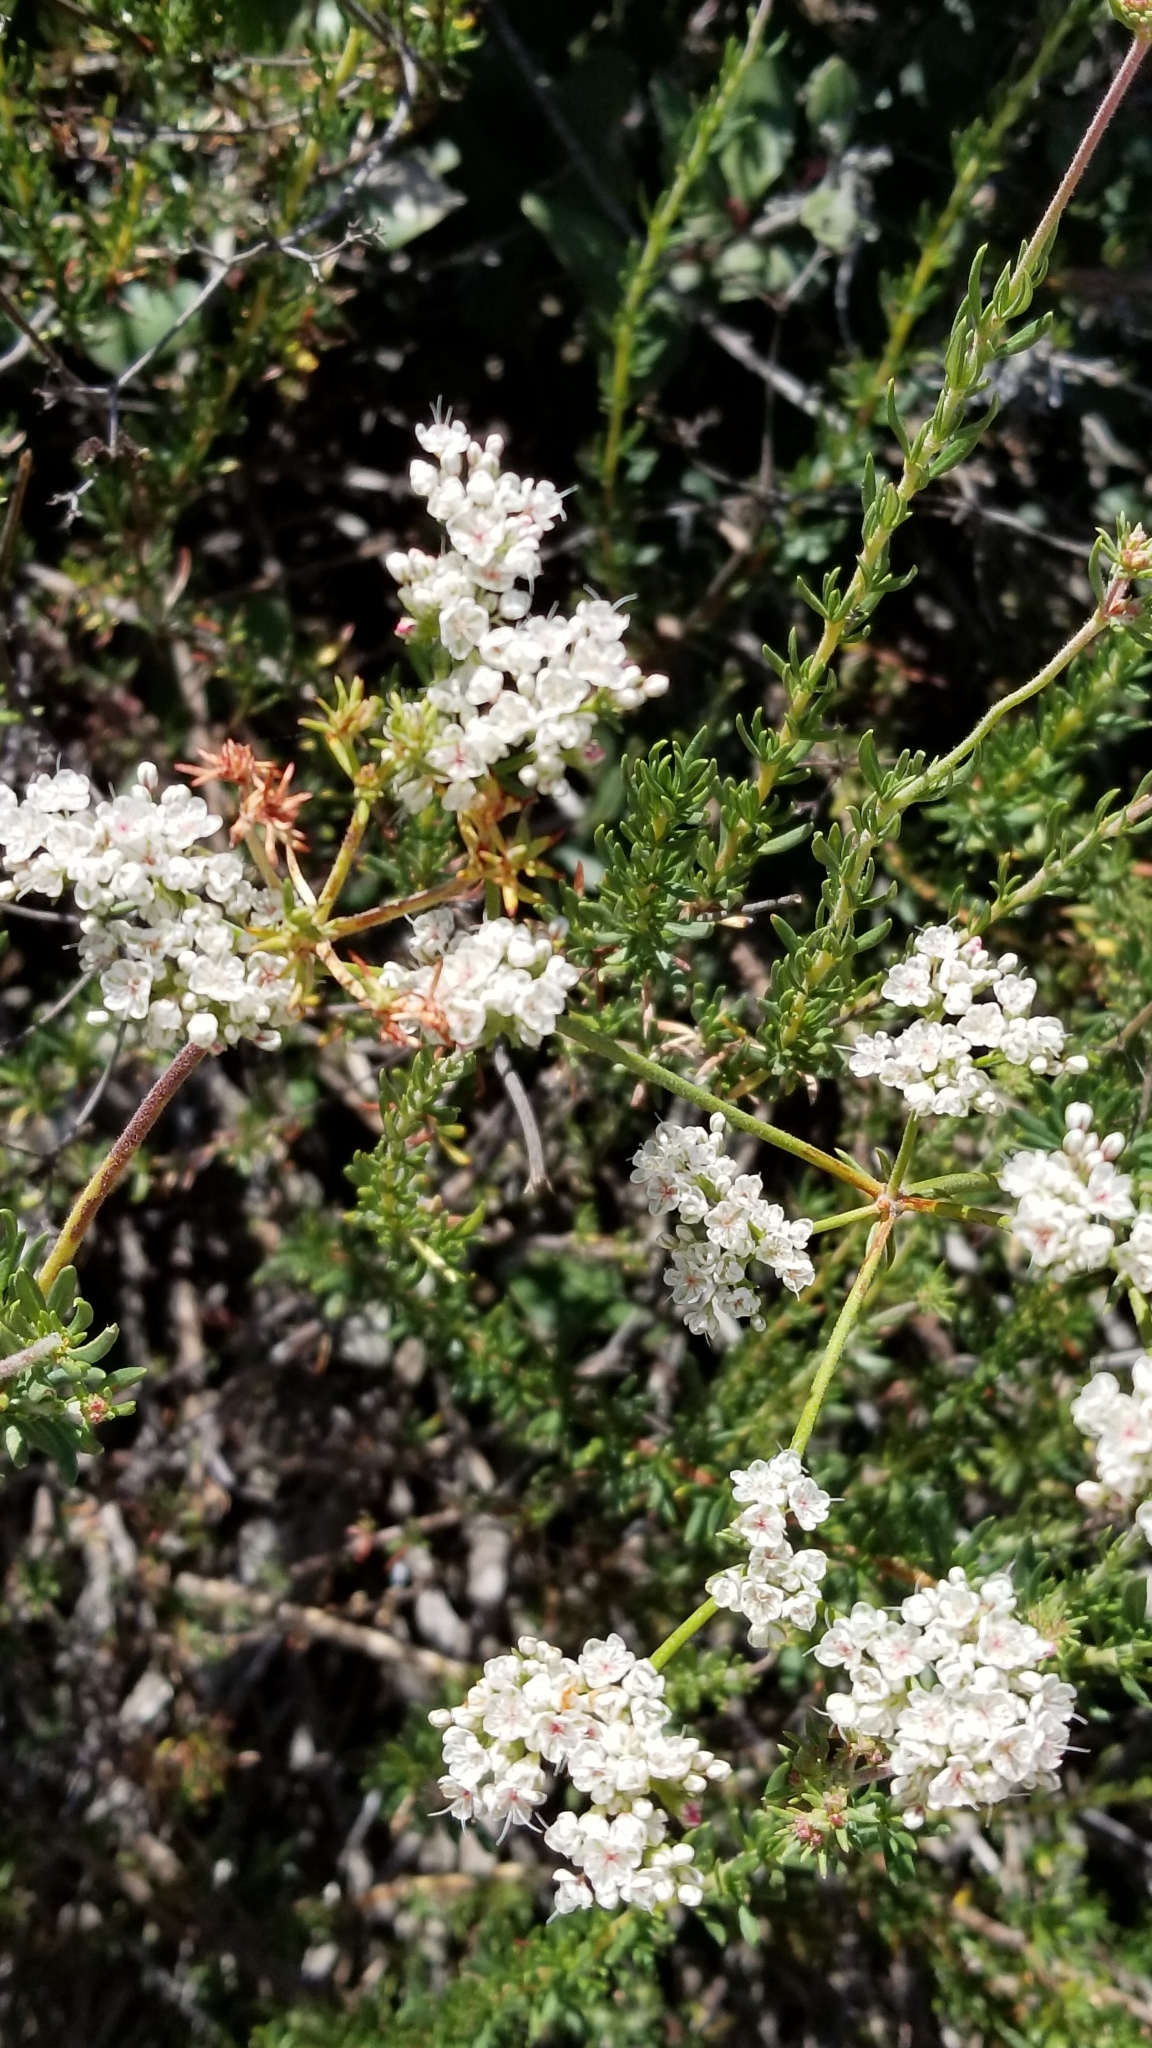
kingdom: Plantae
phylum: Tracheophyta
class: Magnoliopsida
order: Caryophyllales
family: Polygonaceae
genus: Eriogonum
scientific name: Eriogonum fasciculatum
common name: California wild buckwheat
